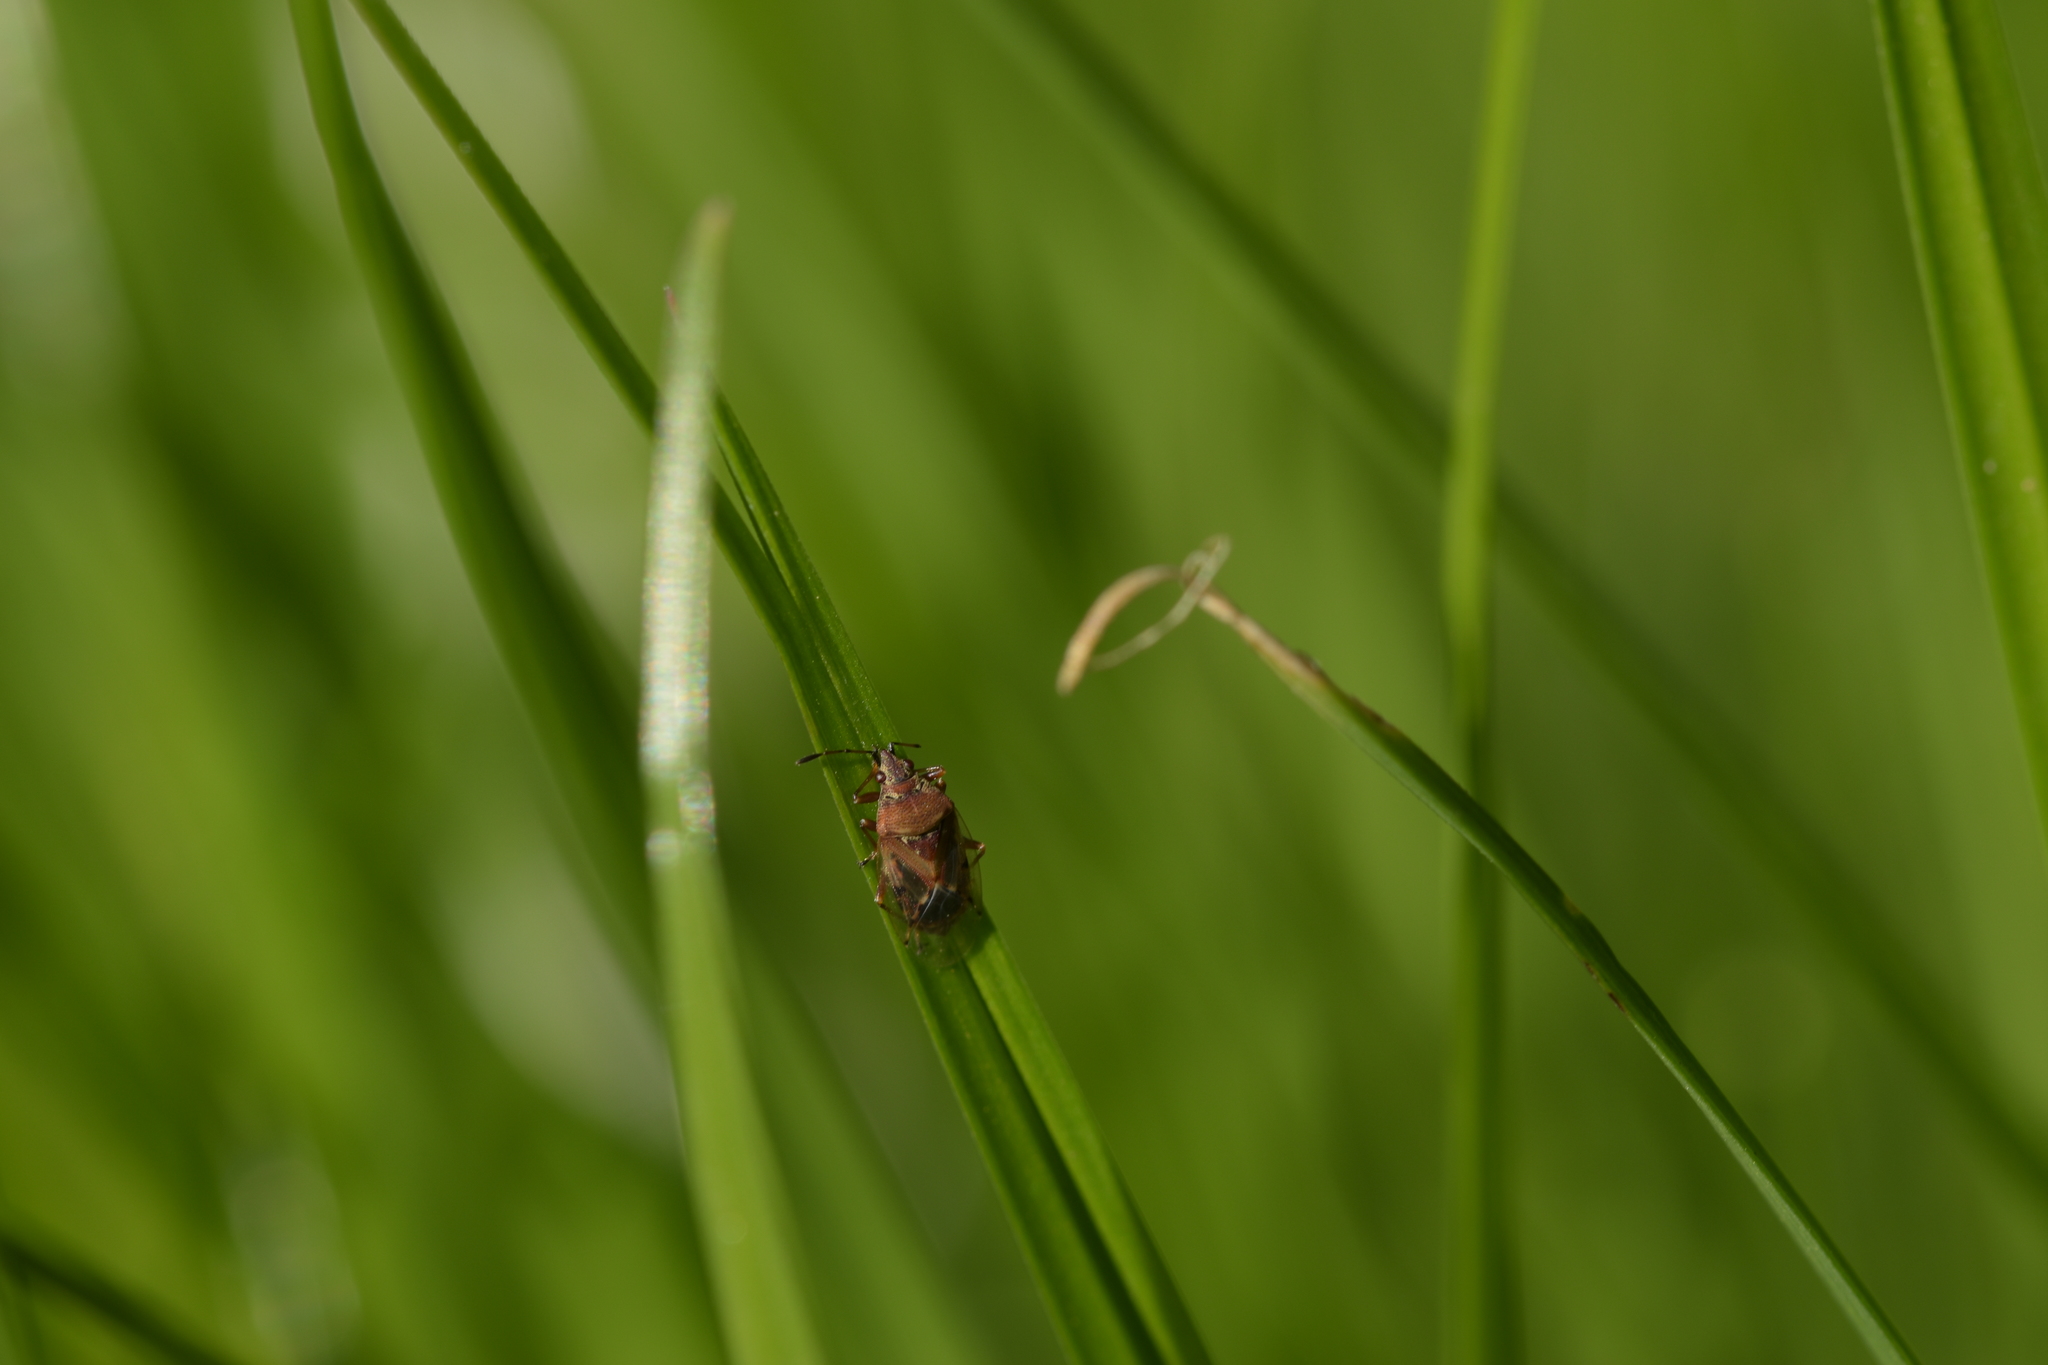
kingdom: Animalia
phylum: Arthropoda
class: Insecta
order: Hemiptera
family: Lygaeidae
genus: Kleidocerys
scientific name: Kleidocerys resedae
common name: Birch catkin bug
